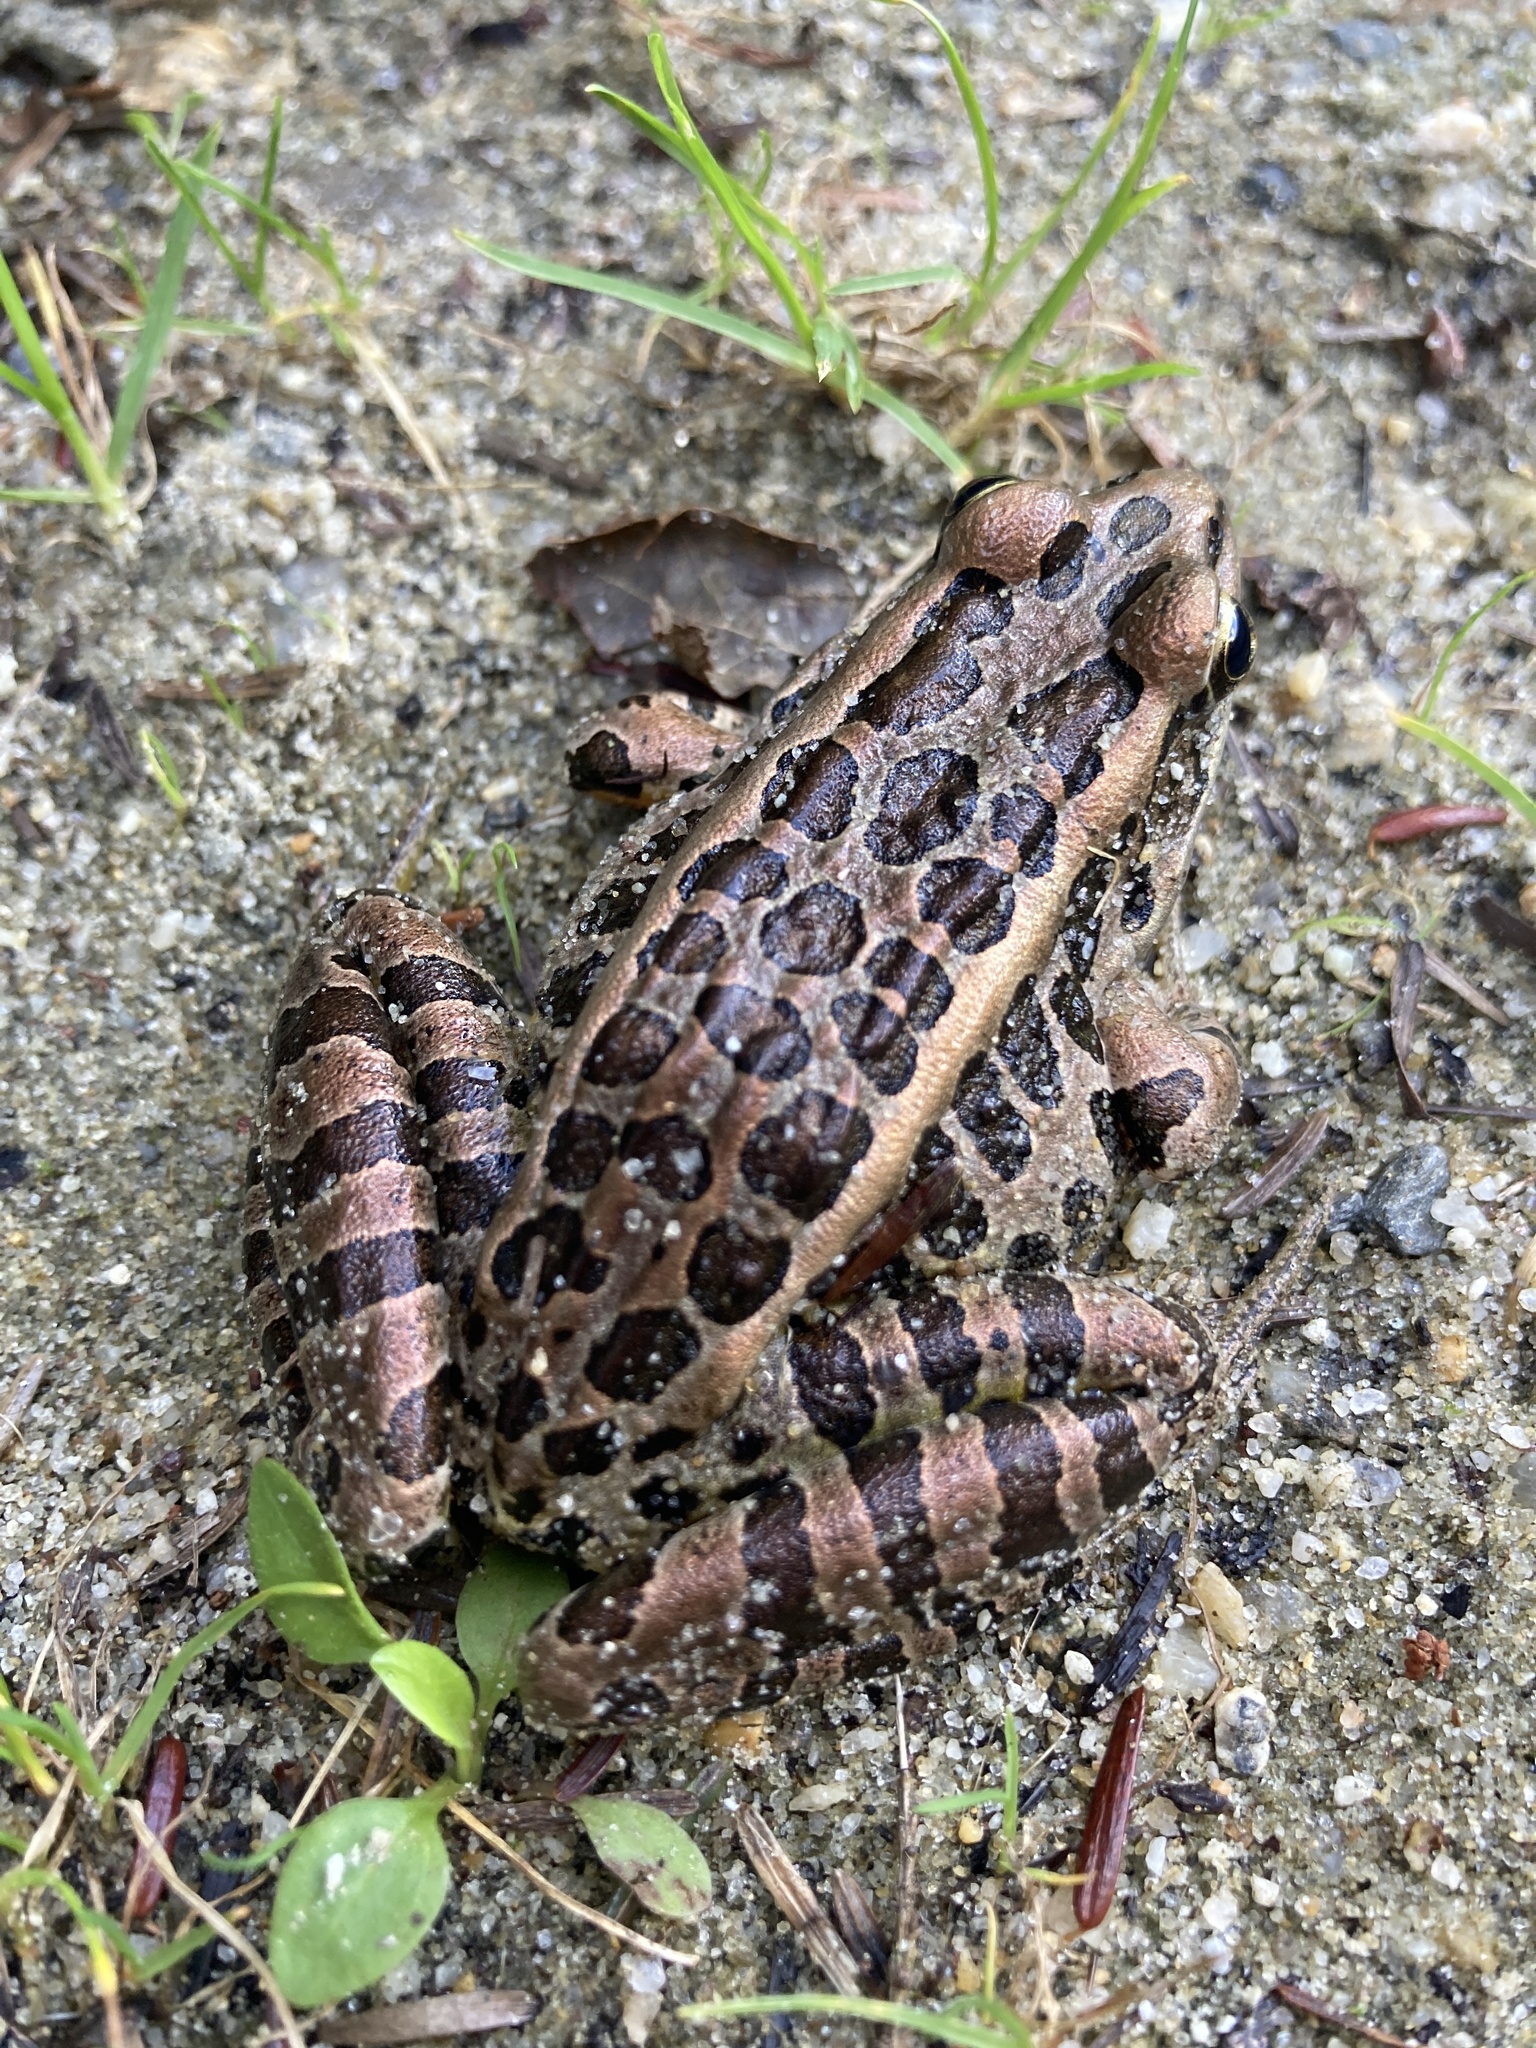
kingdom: Animalia
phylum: Chordata
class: Amphibia
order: Anura
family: Ranidae
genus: Lithobates
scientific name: Lithobates palustris
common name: Pickerel frog
